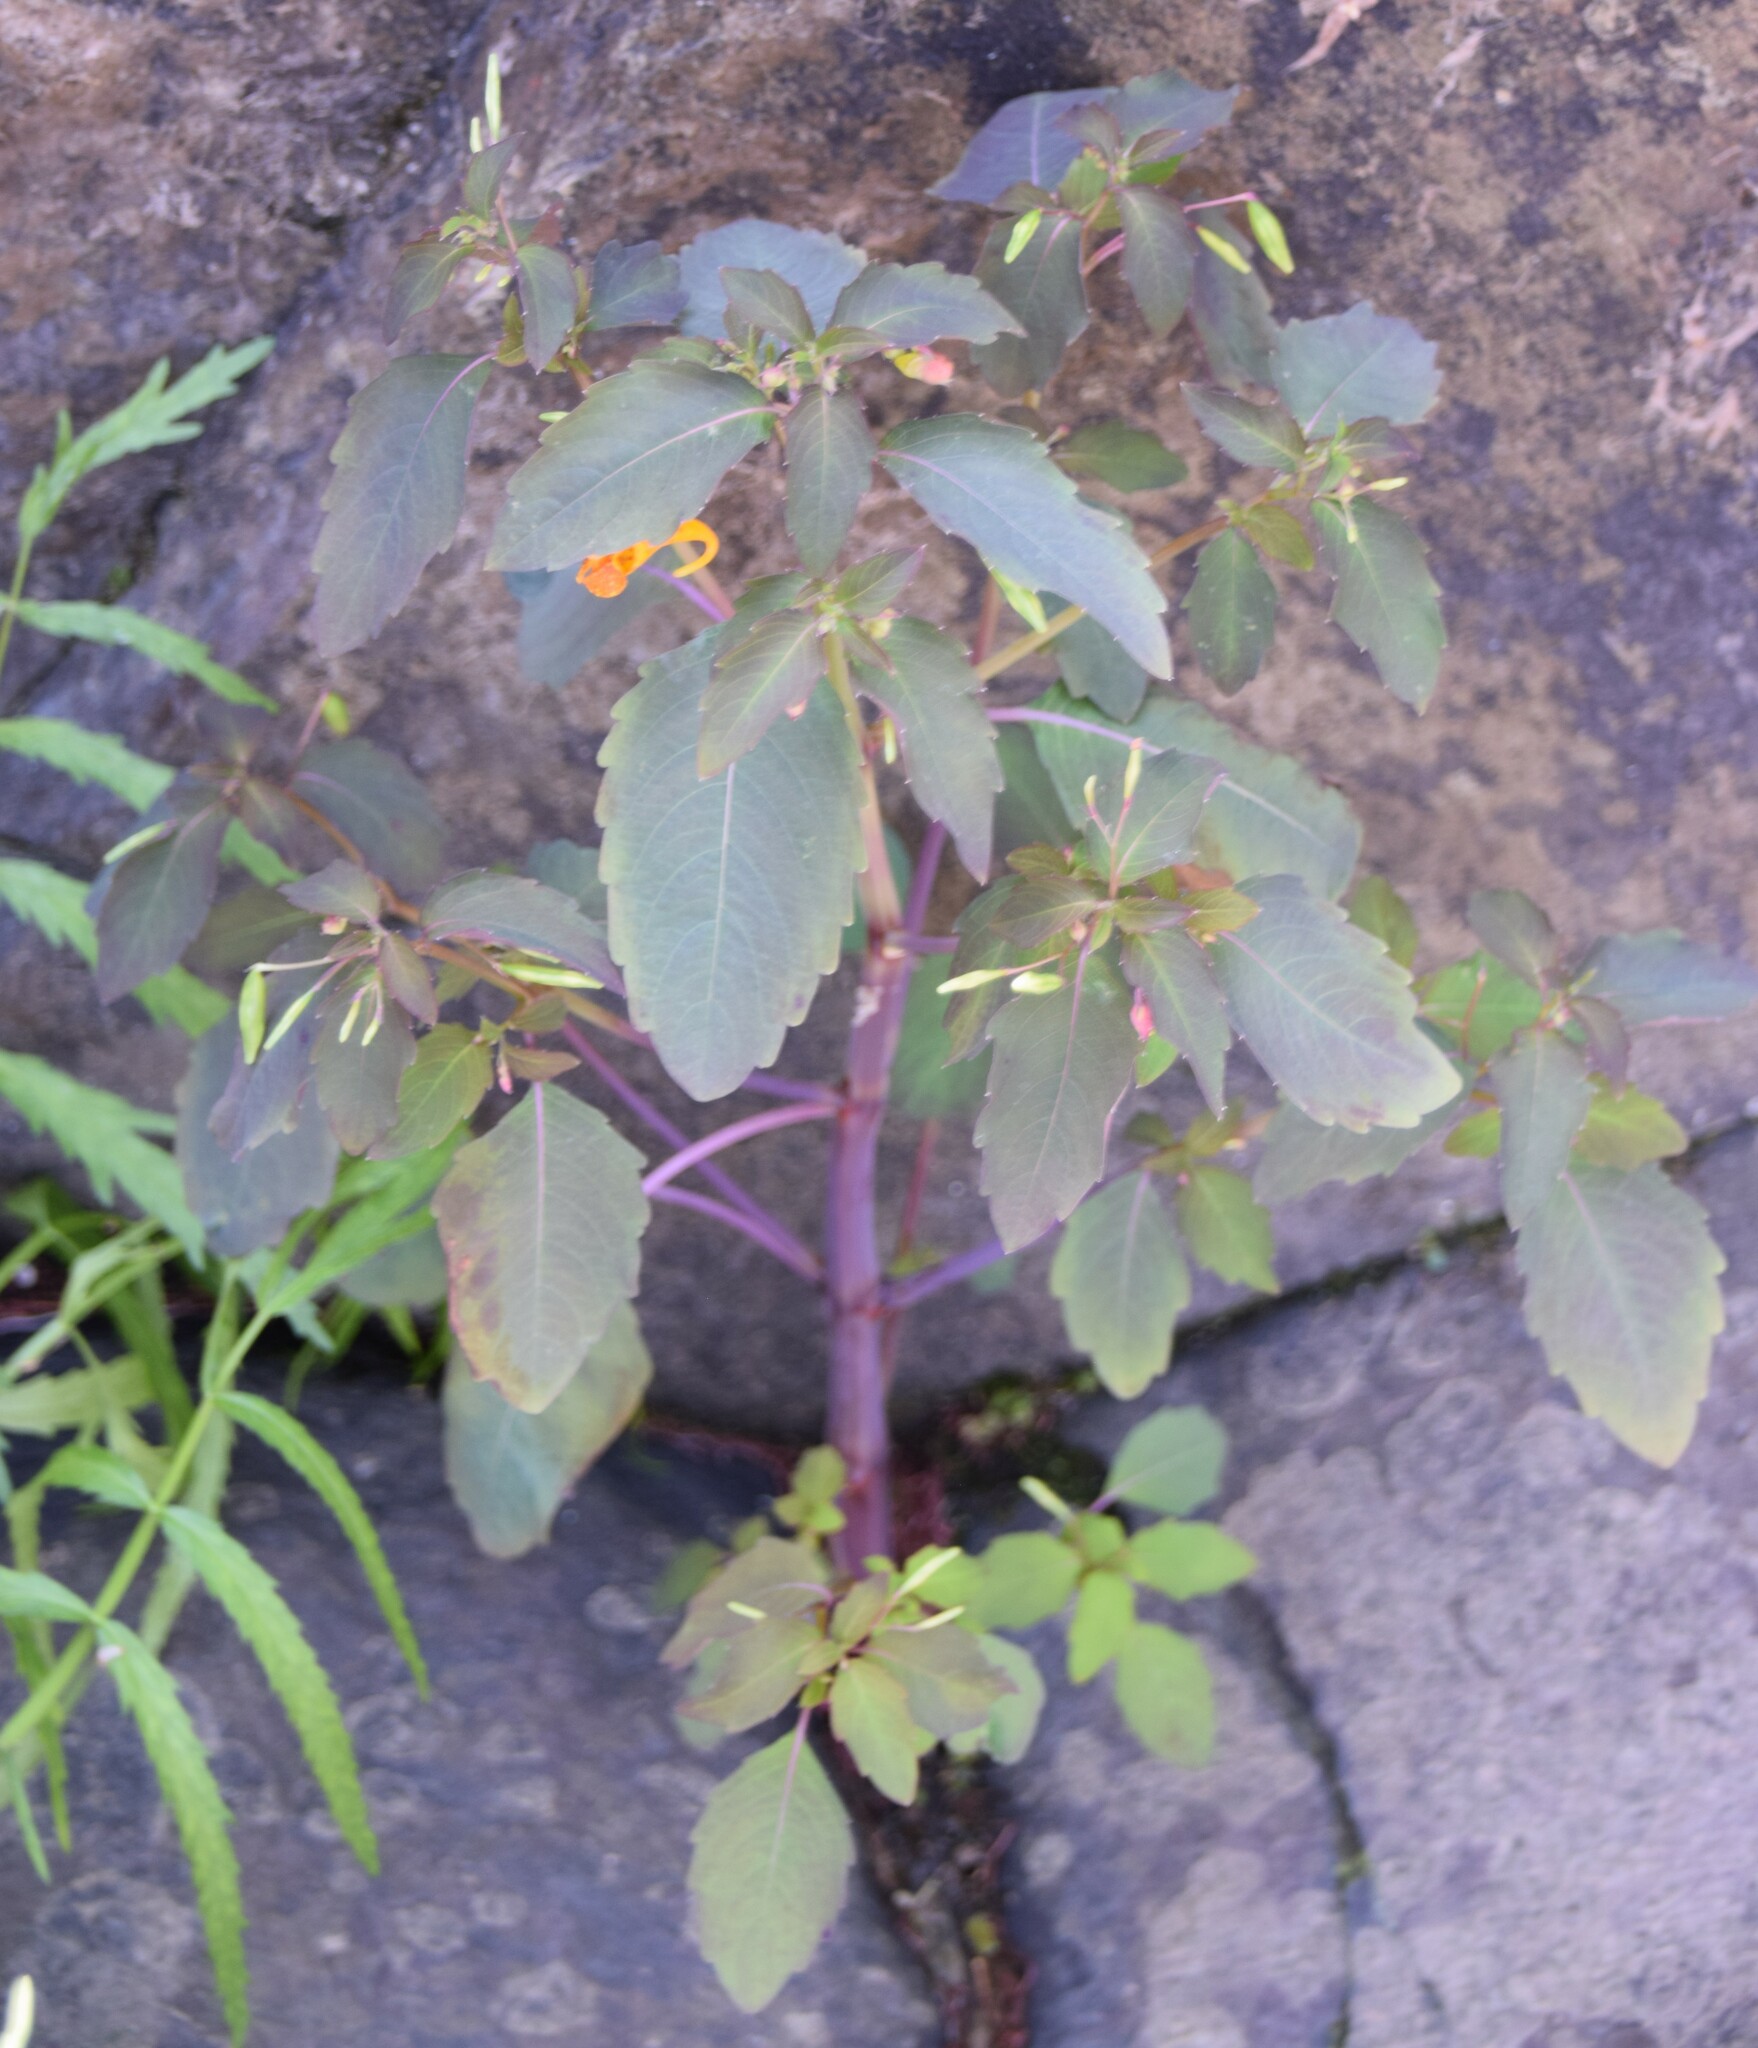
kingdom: Plantae
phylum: Tracheophyta
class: Magnoliopsida
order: Ericales
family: Balsaminaceae
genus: Impatiens
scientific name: Impatiens capensis
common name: Orange balsam
